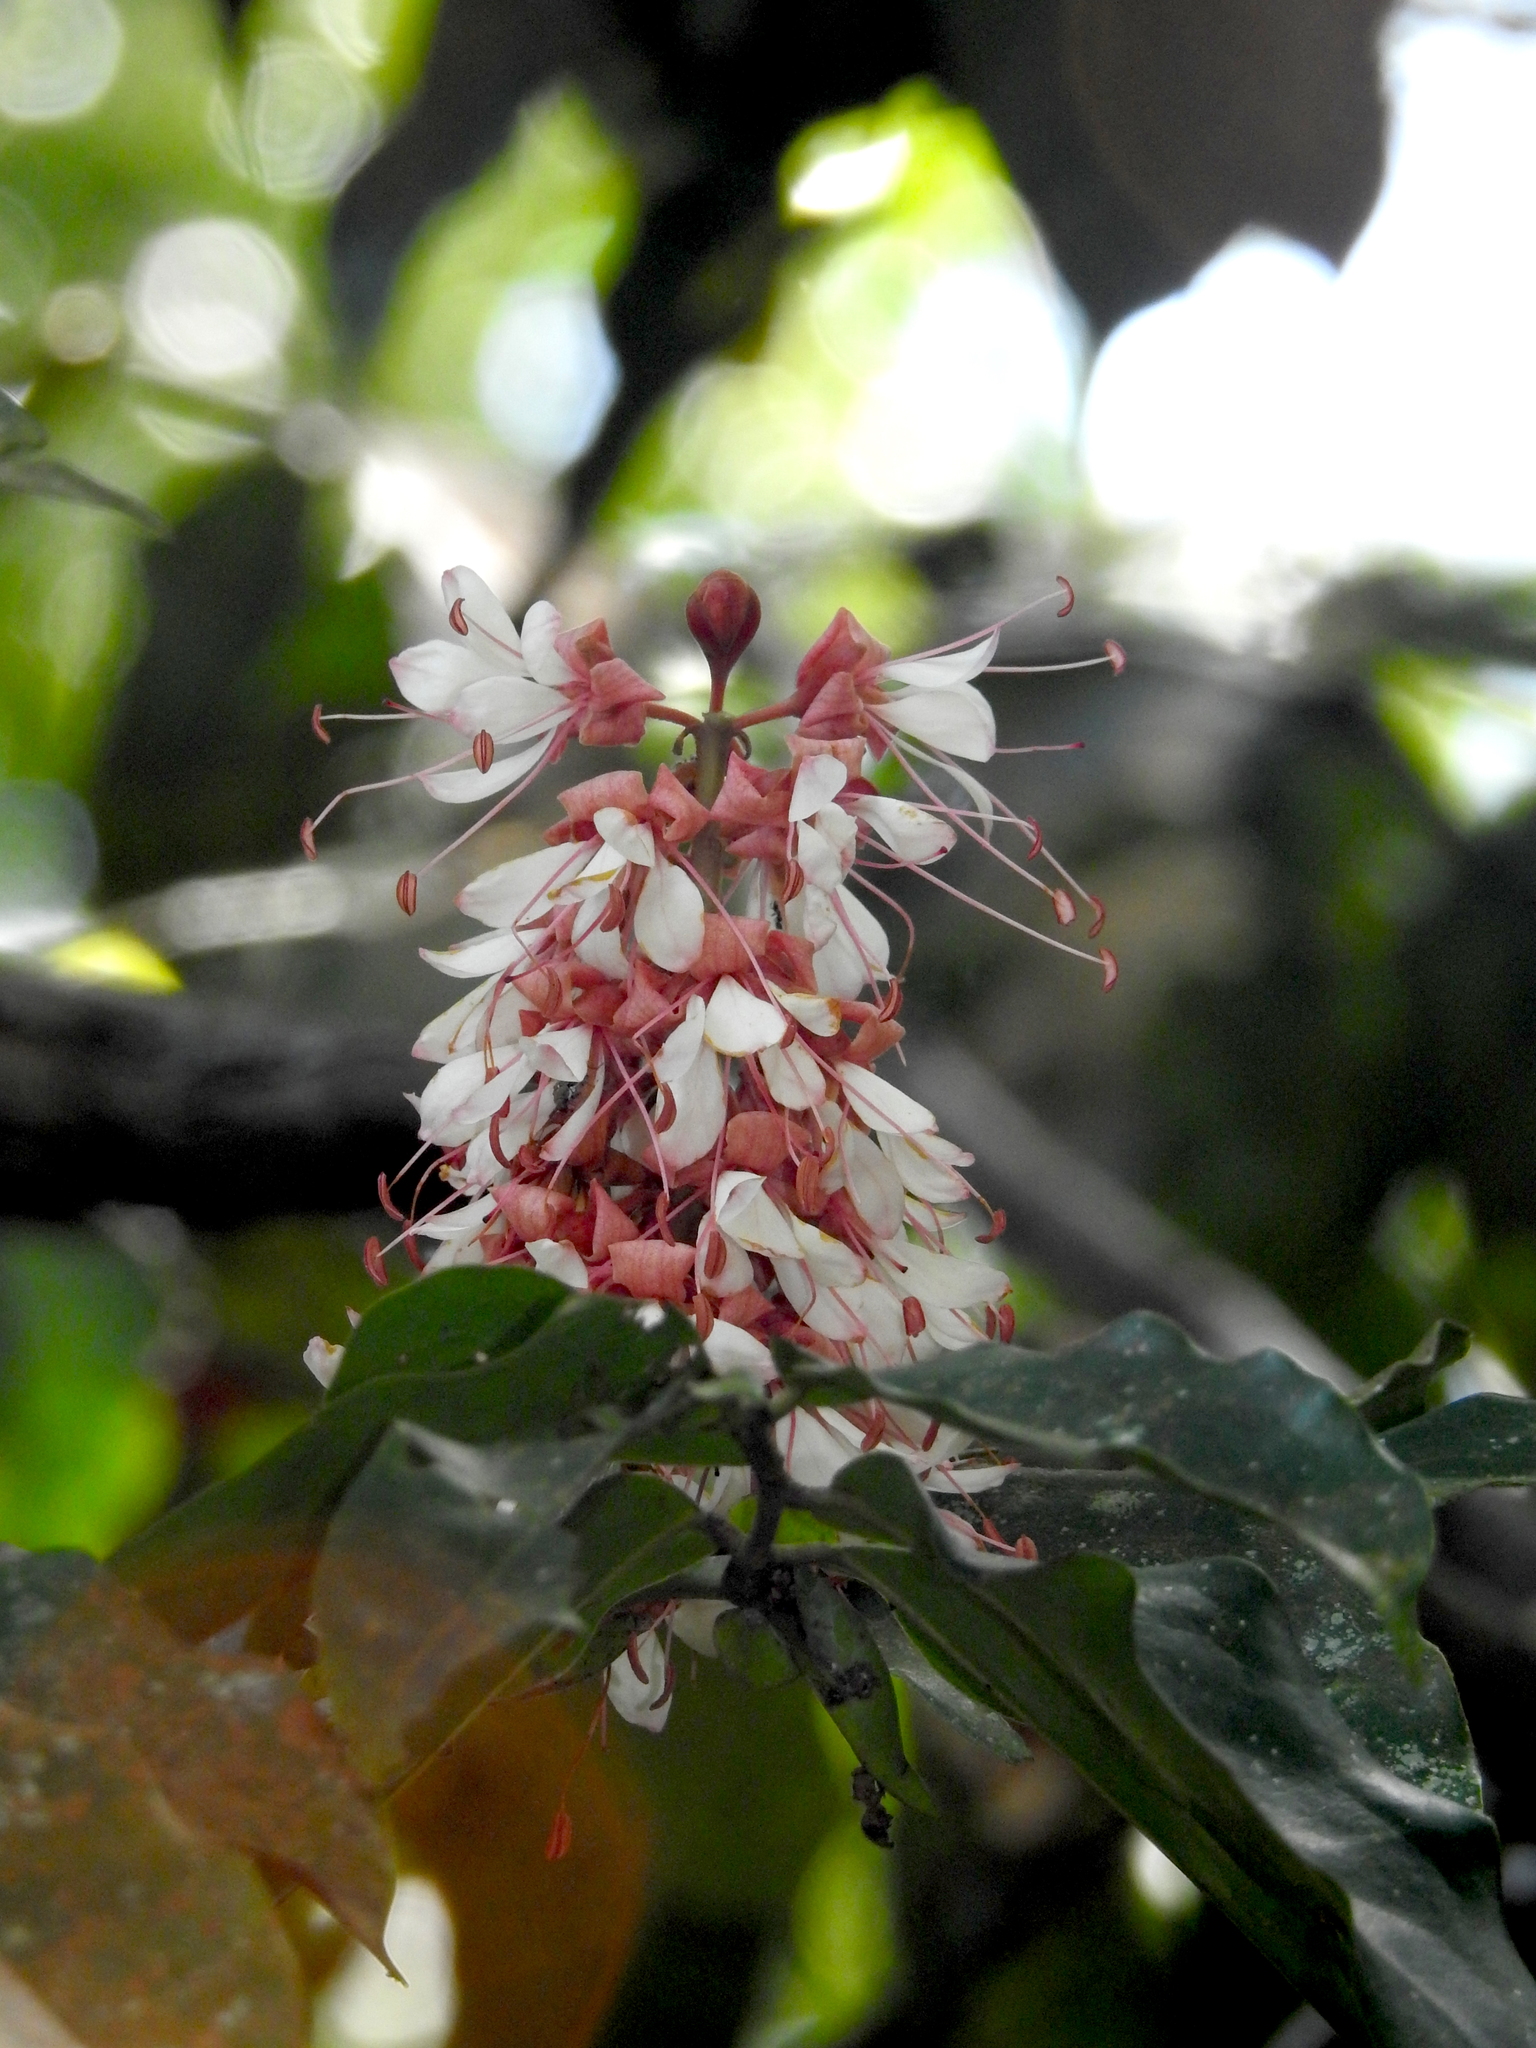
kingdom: Plantae
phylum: Tracheophyta
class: Magnoliopsida
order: Fabales
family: Fabaceae
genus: Humboldtia
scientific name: Humboldtia laurifolia
